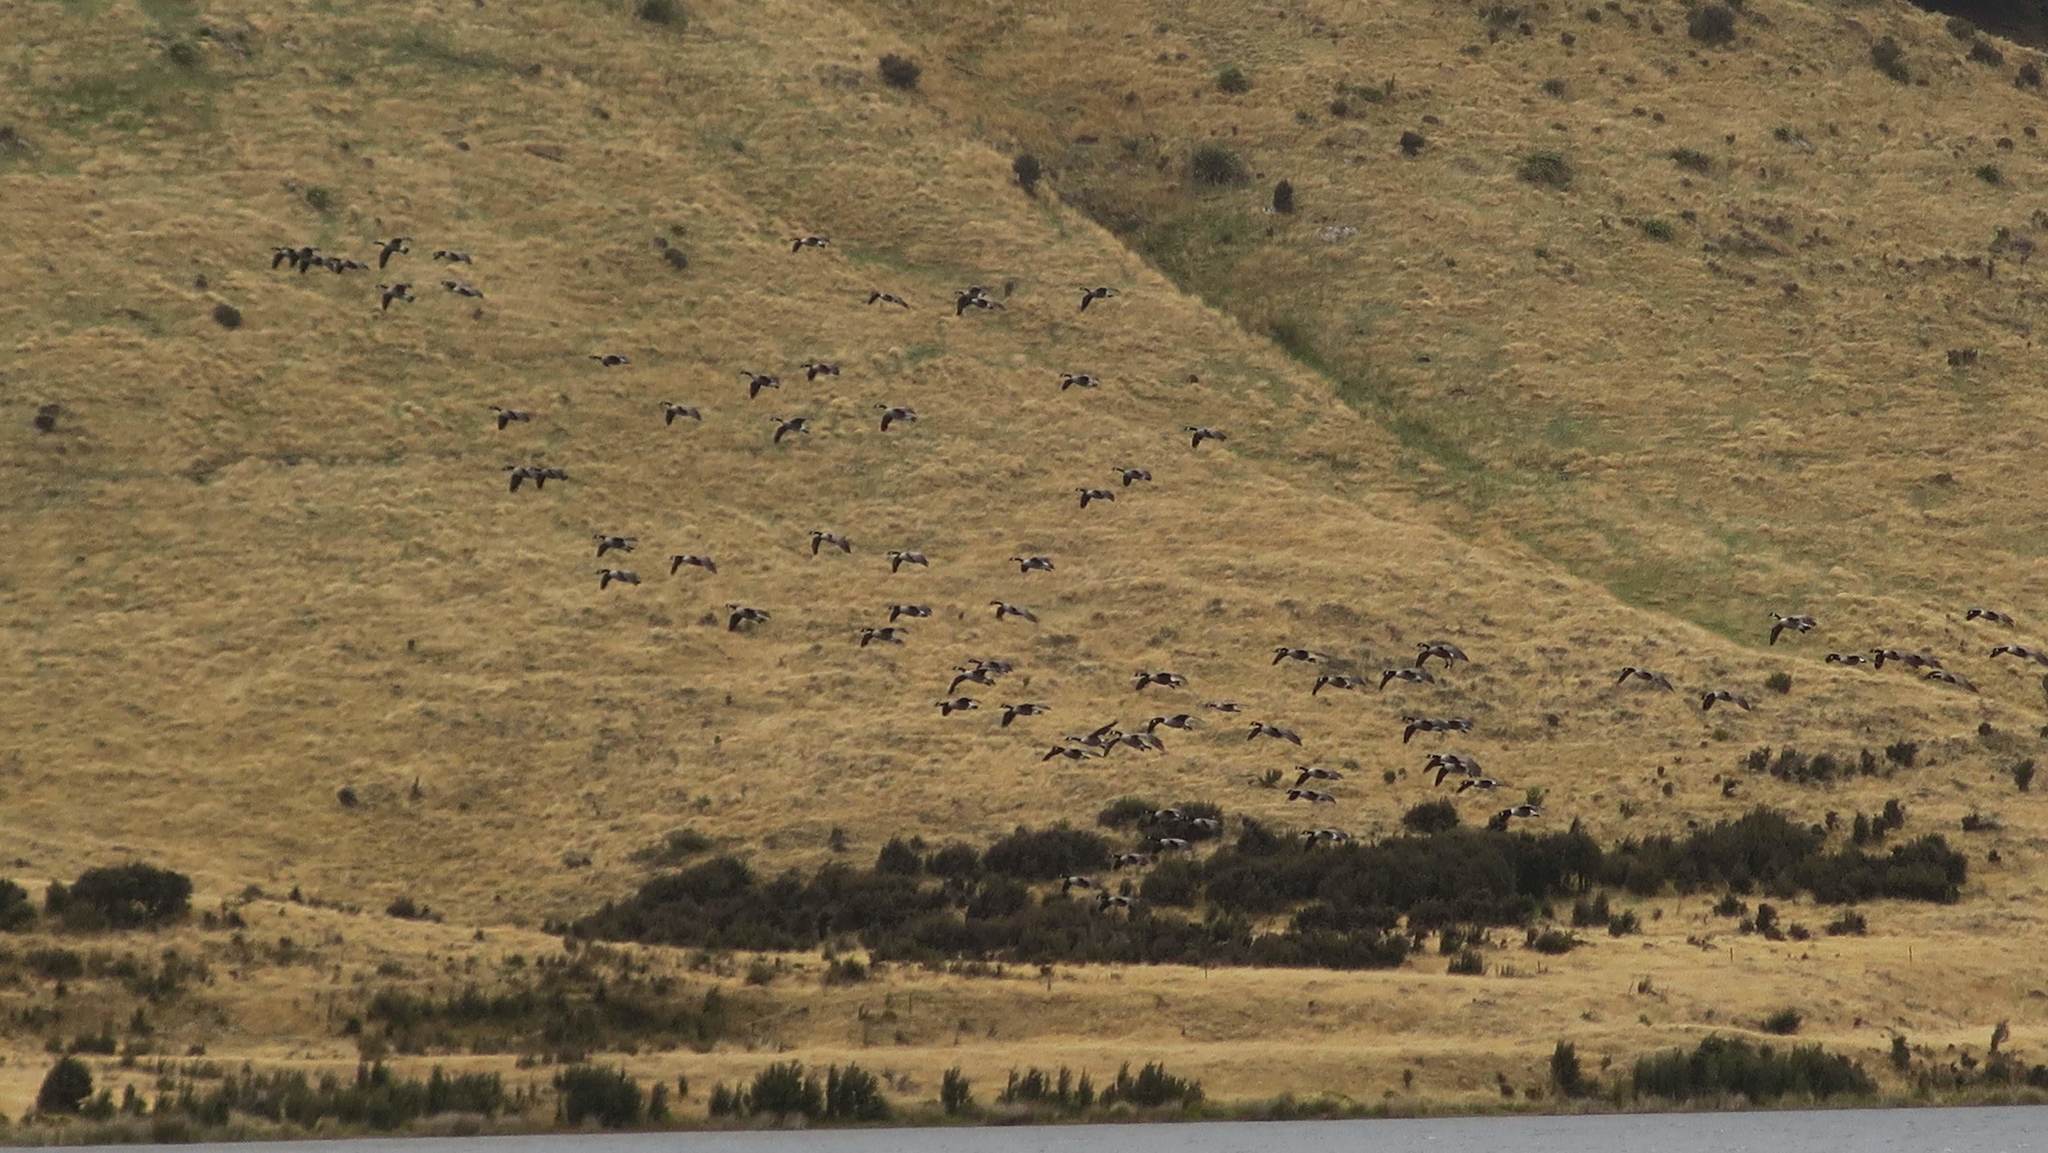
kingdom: Animalia
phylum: Chordata
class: Aves
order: Anseriformes
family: Anatidae
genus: Branta
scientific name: Branta canadensis
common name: Canada goose
